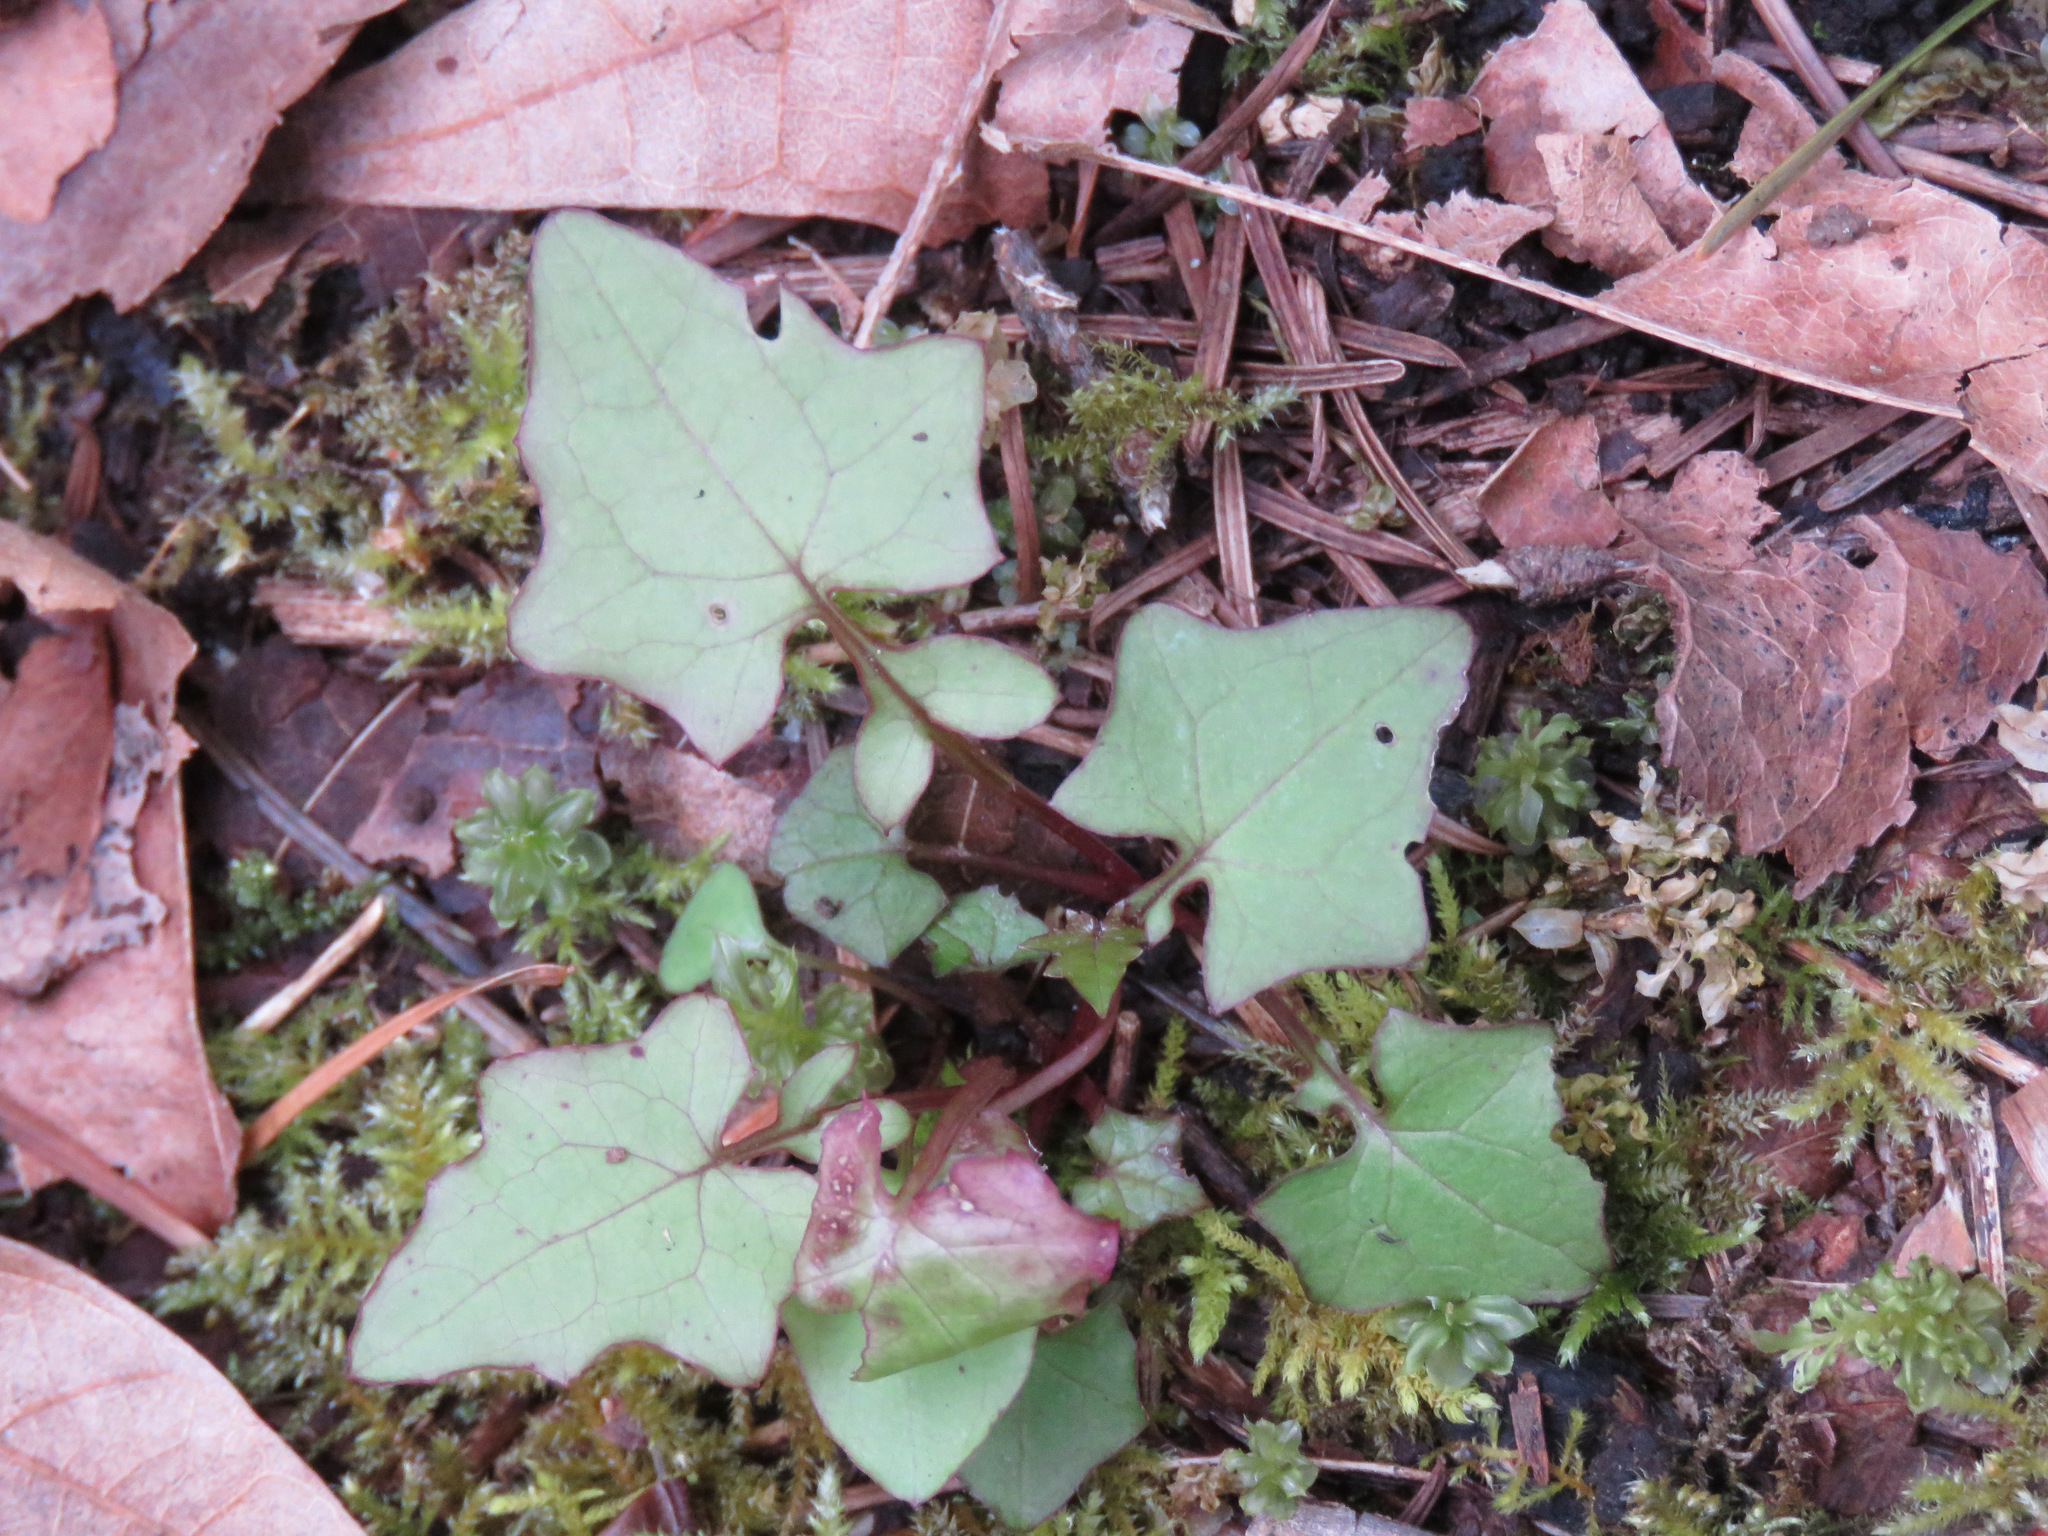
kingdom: Plantae
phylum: Tracheophyta
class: Magnoliopsida
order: Asterales
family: Asteraceae
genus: Mycelis
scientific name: Mycelis muralis
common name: Wall lettuce
